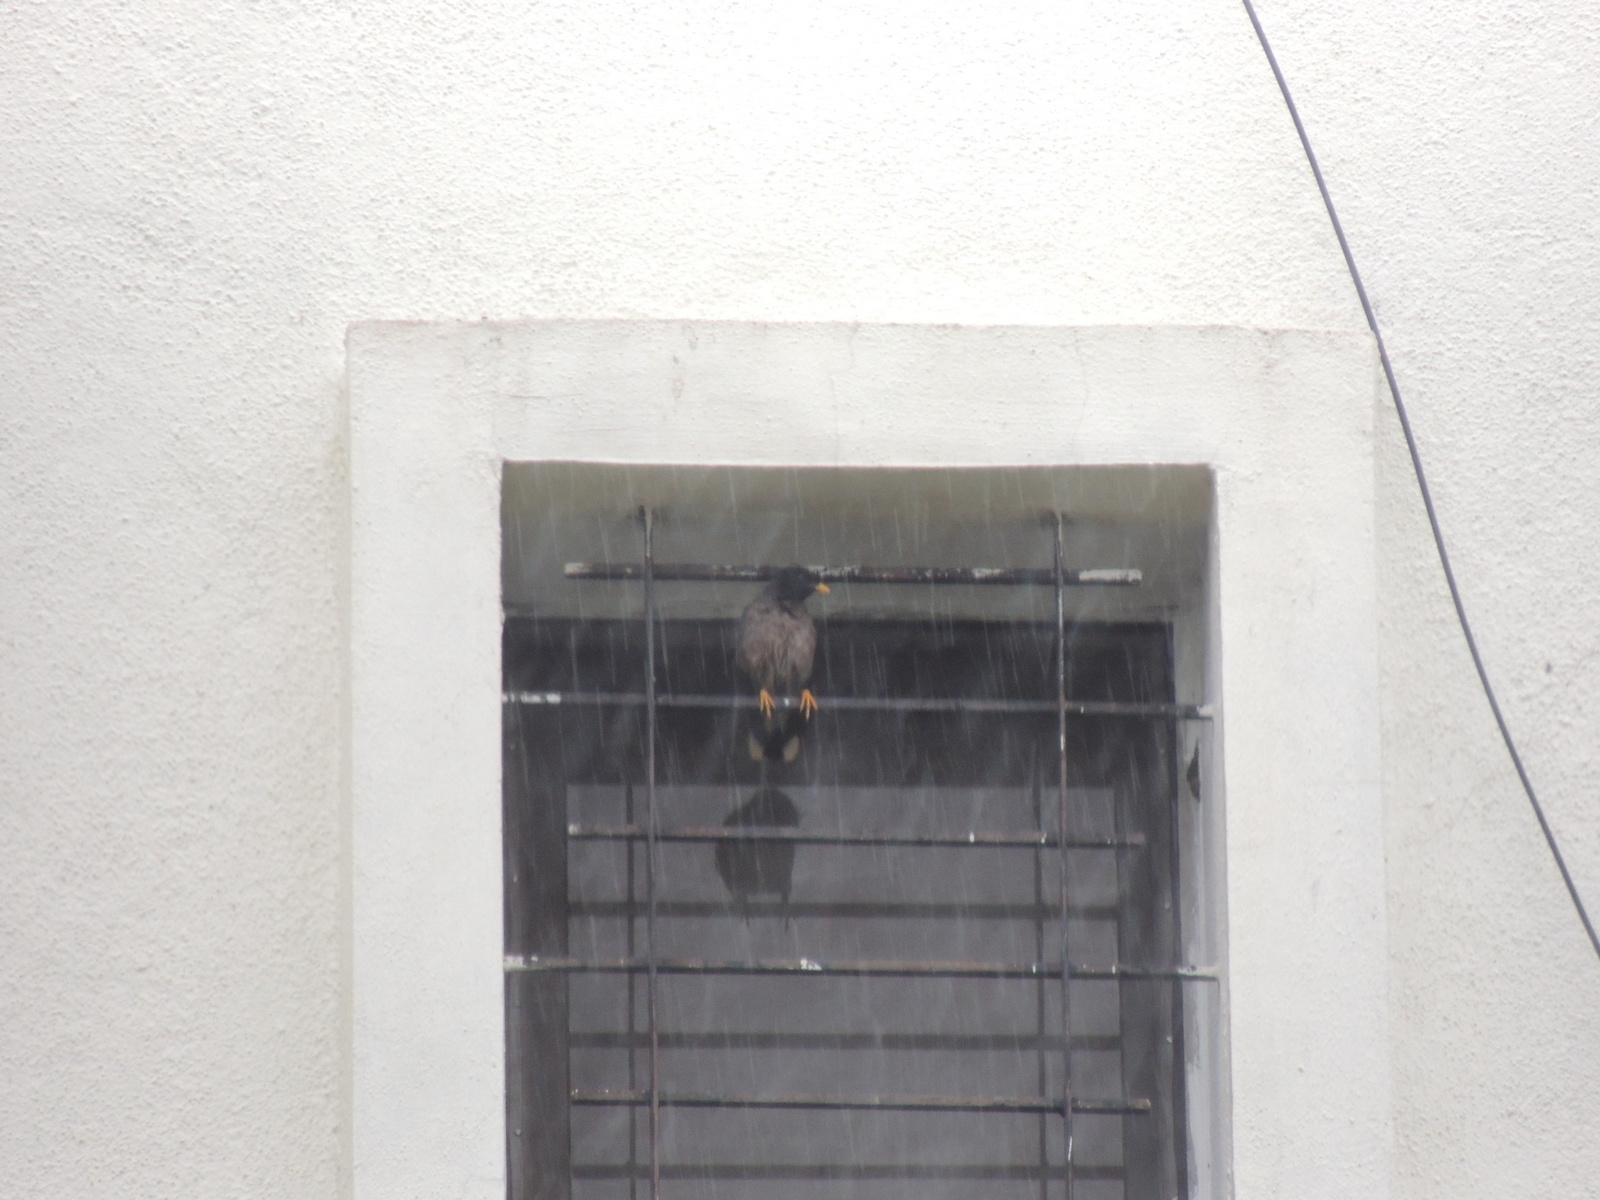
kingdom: Animalia
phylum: Chordata
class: Aves
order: Passeriformes
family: Sturnidae
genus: Acridotheres
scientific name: Acridotheres fuscus
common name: Jungle myna
